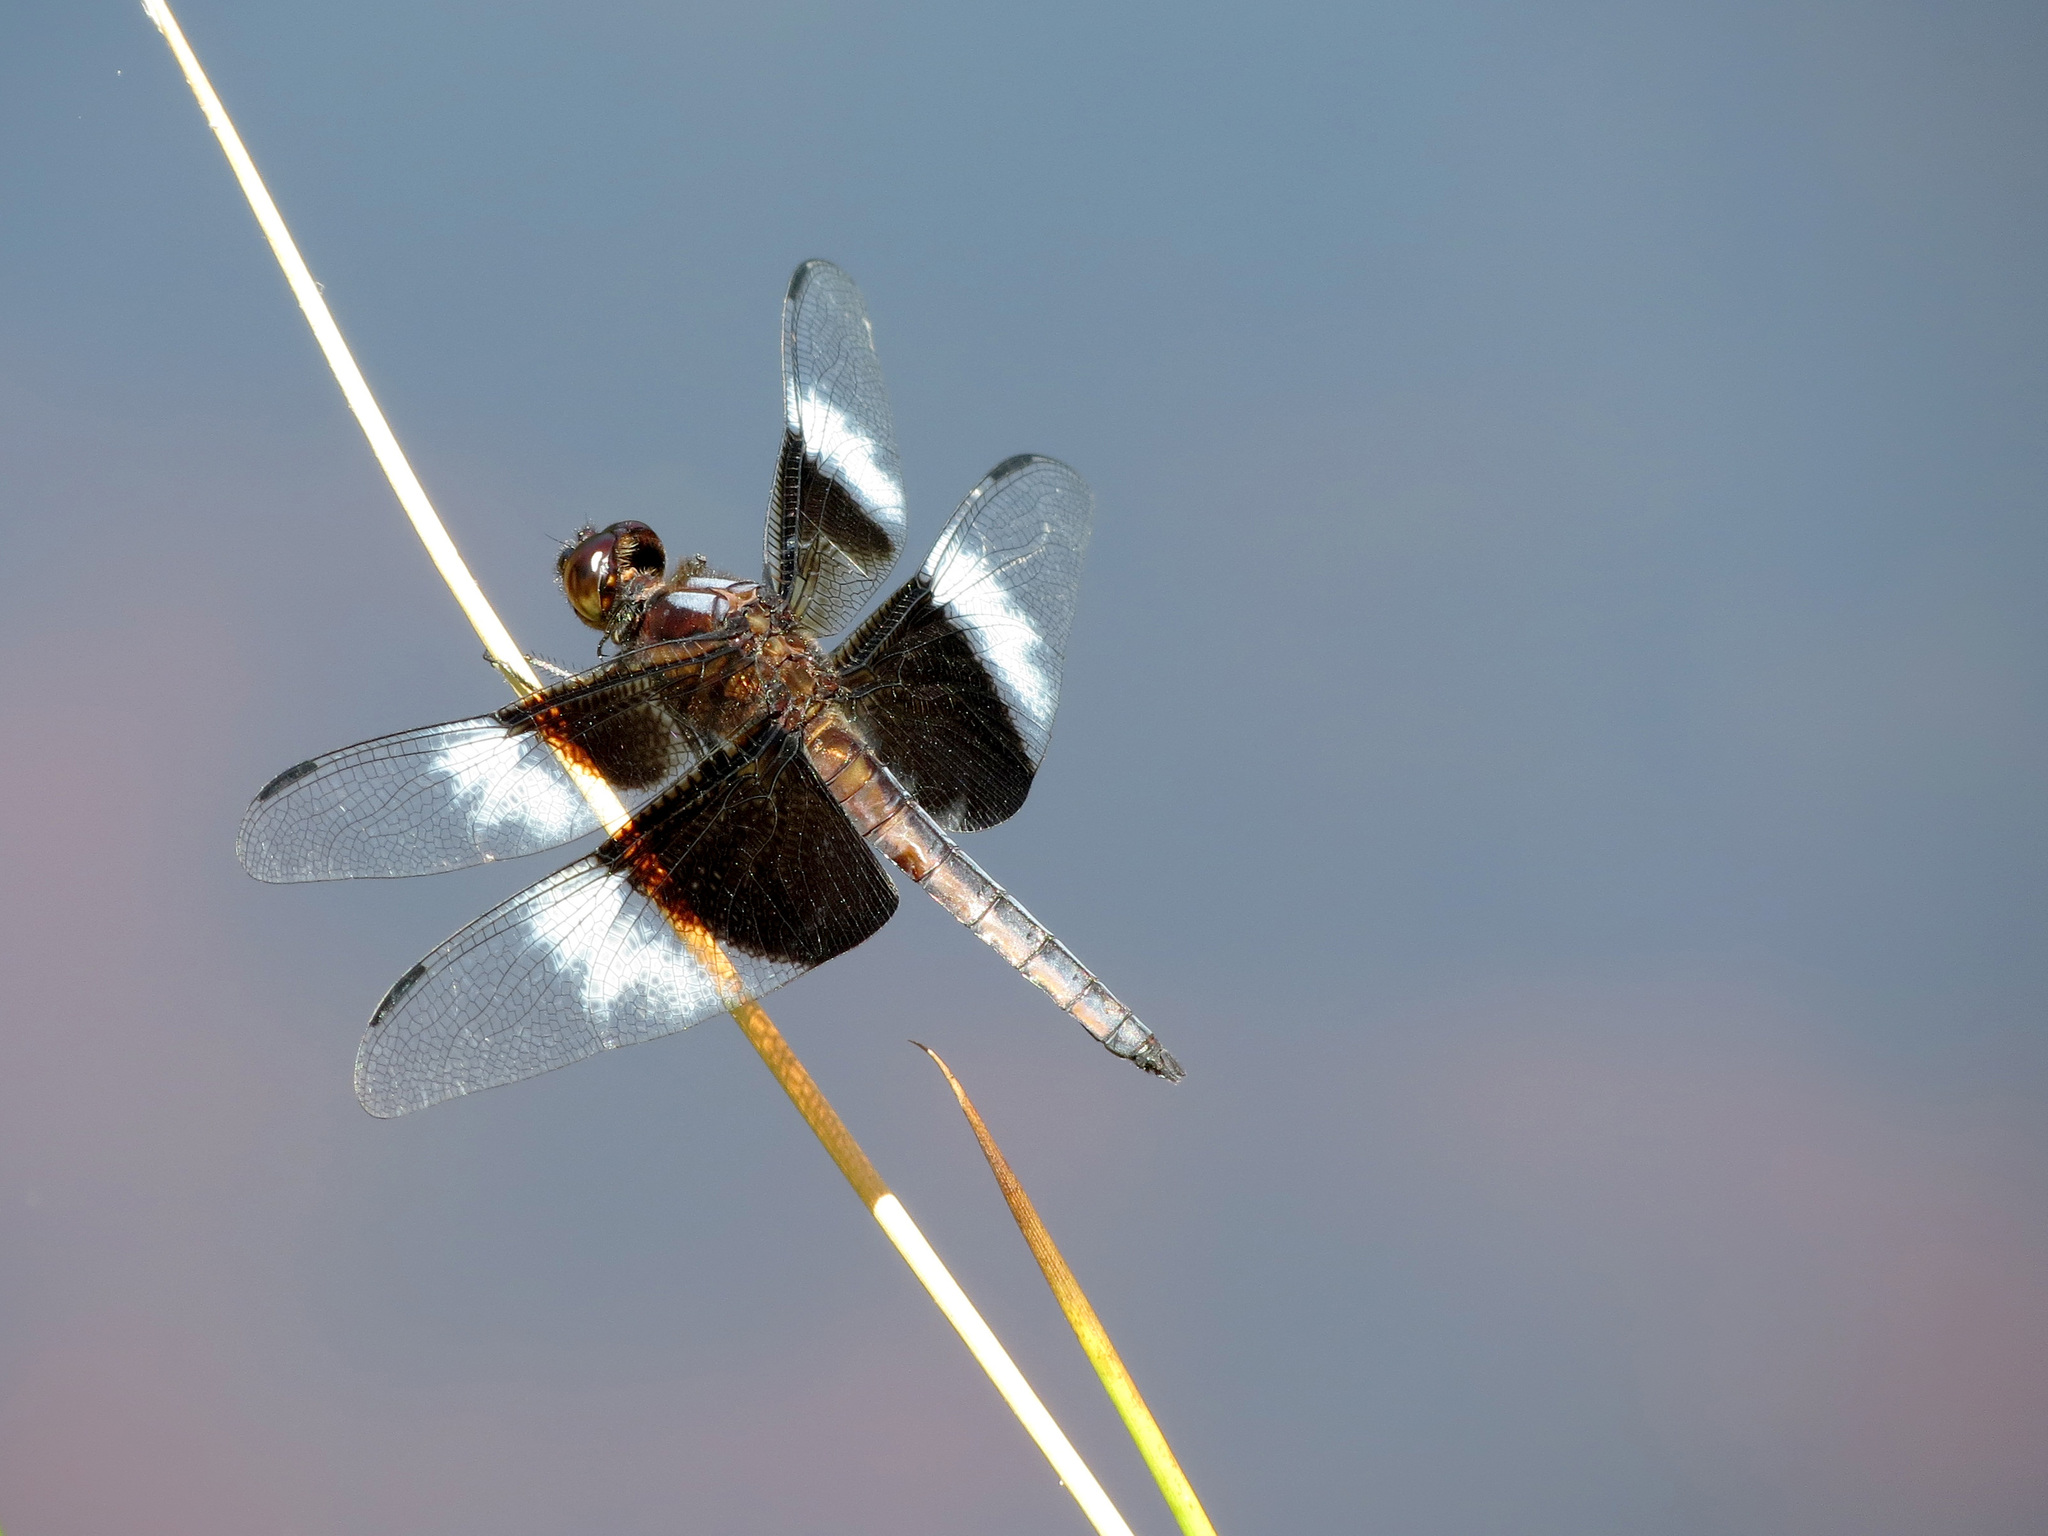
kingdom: Animalia
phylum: Arthropoda
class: Insecta
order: Odonata
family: Libellulidae
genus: Libellula
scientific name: Libellula luctuosa
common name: Widow skimmer
